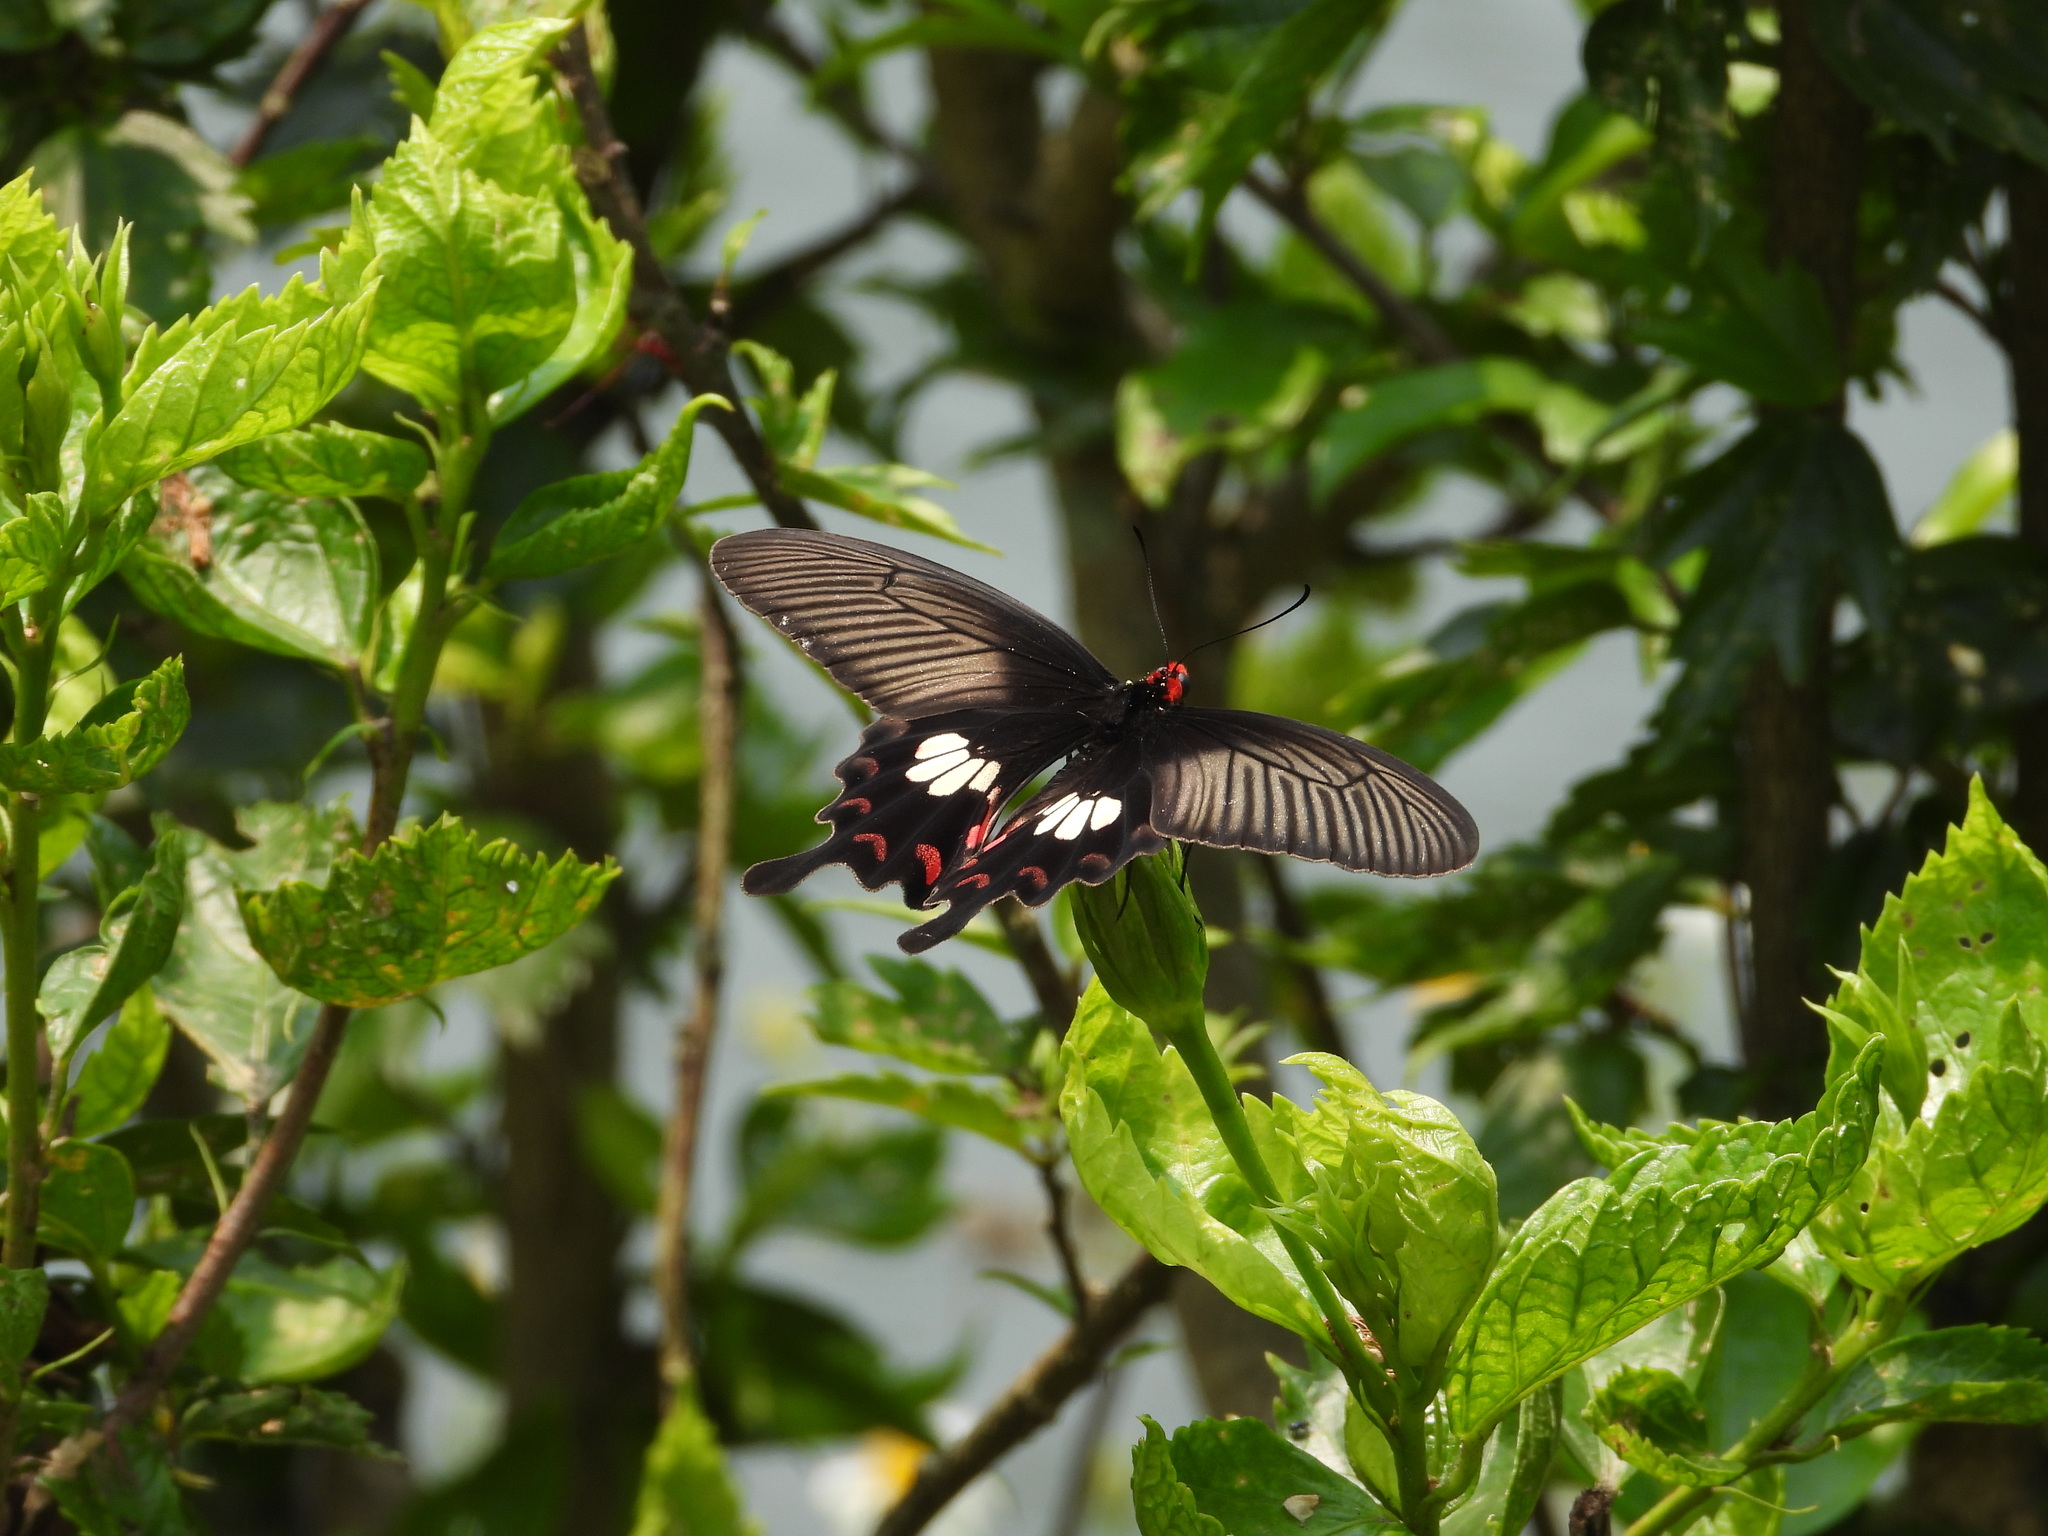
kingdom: Animalia
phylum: Arthropoda
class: Insecta
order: Lepidoptera
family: Papilionidae
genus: Pachliopta
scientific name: Pachliopta aristolochiae
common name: Common rose
